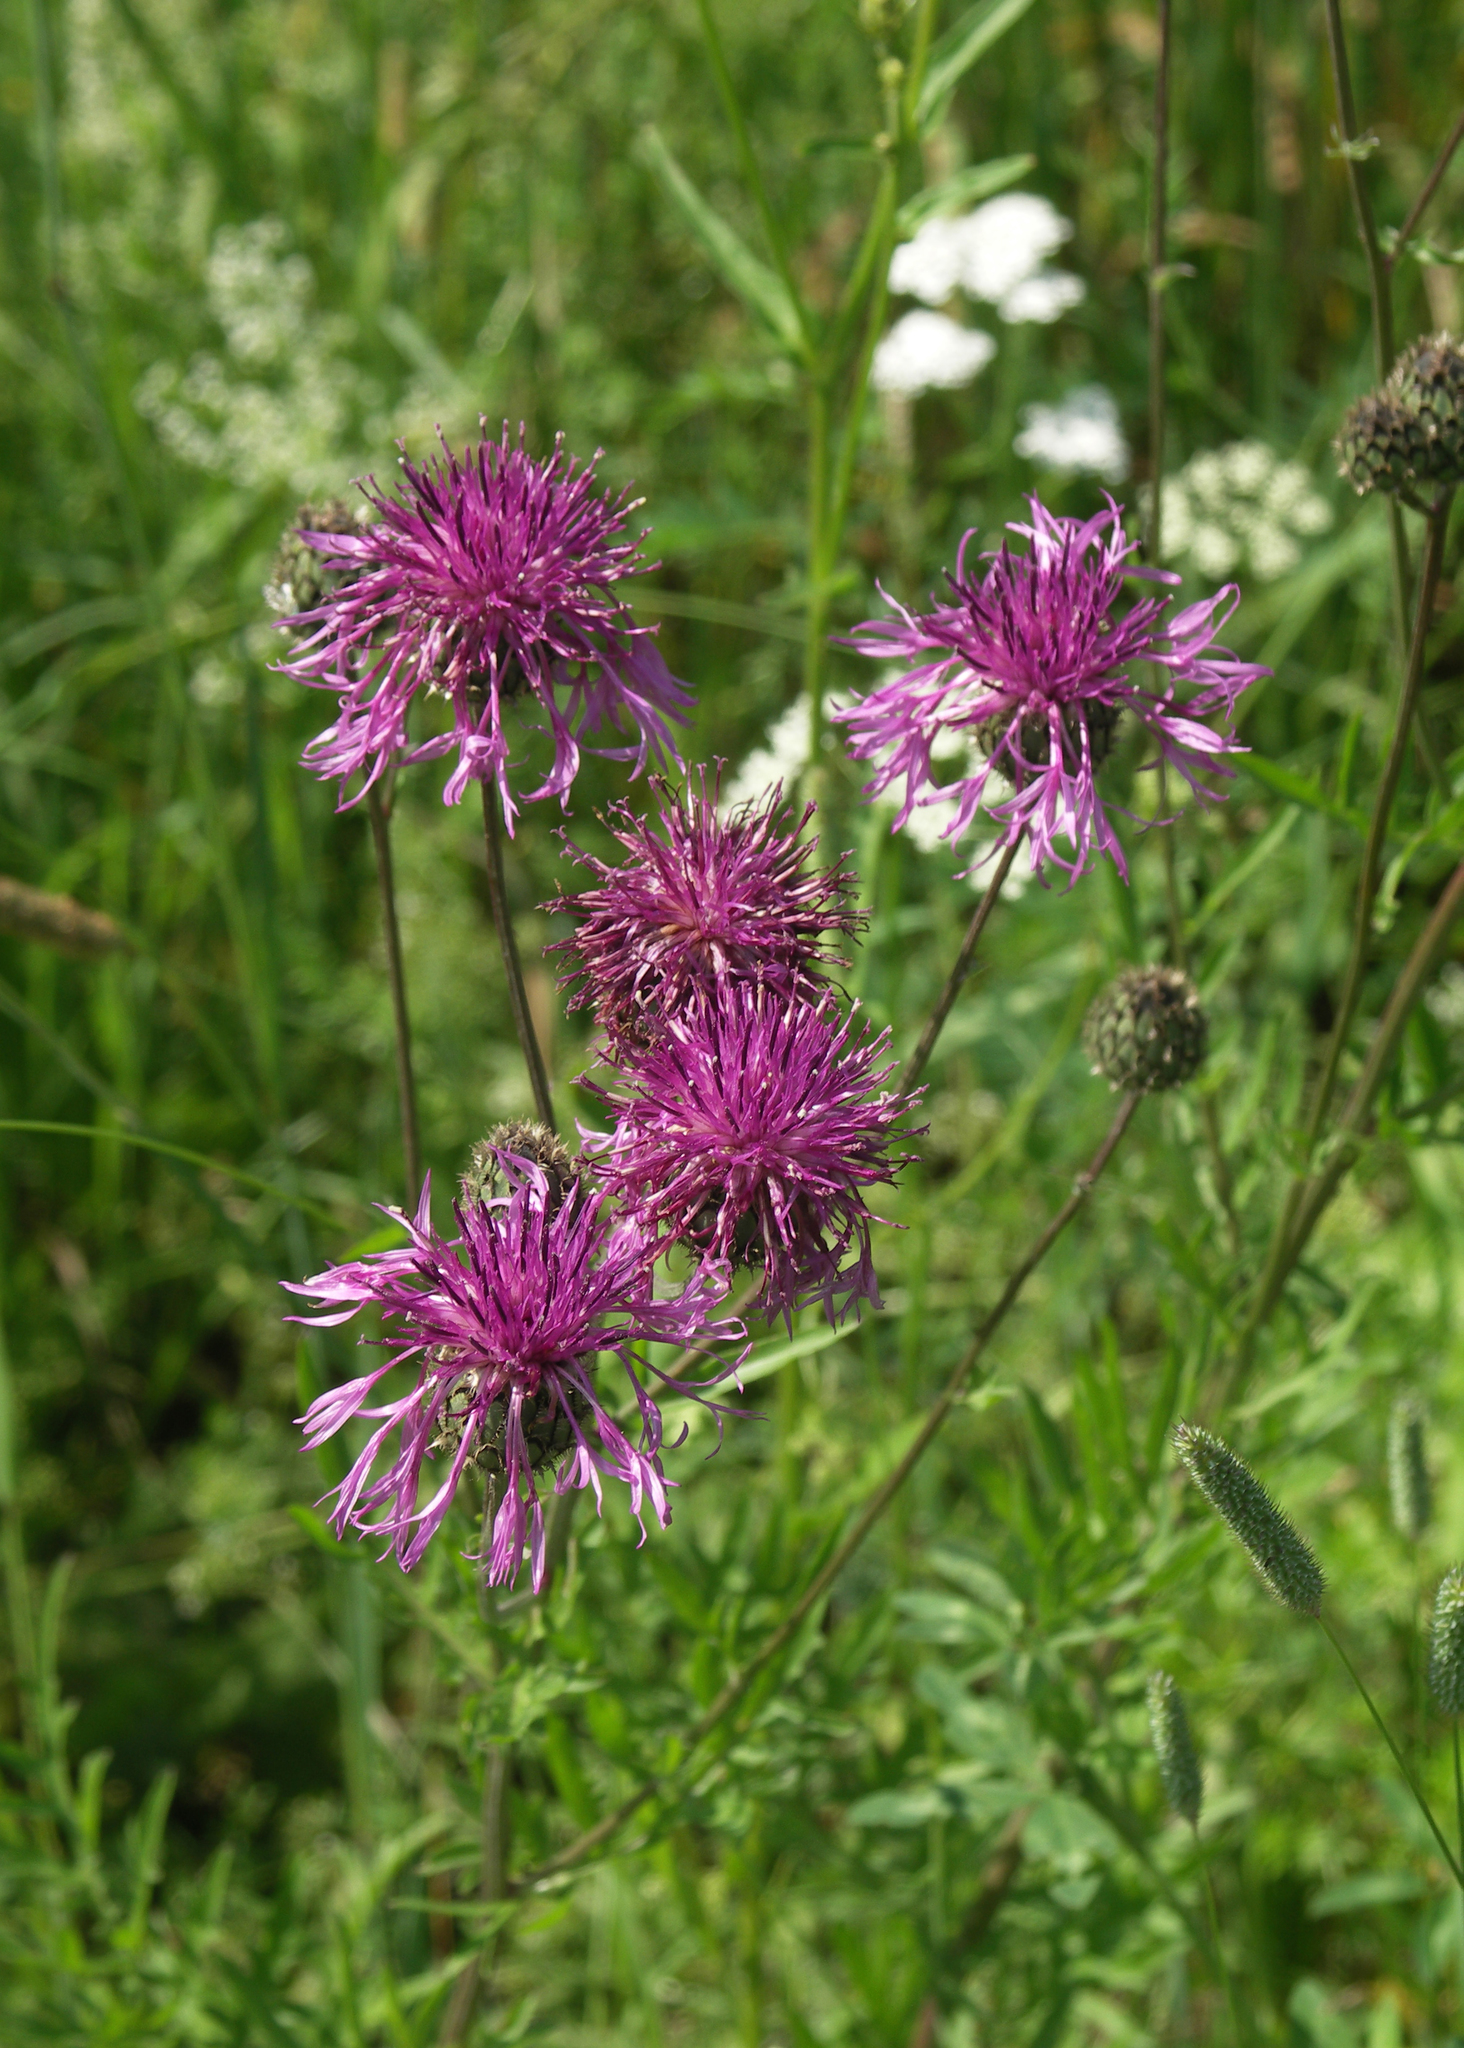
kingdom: Plantae
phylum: Tracheophyta
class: Magnoliopsida
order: Asterales
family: Asteraceae
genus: Centaurea
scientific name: Centaurea scabiosa
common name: Greater knapweed
